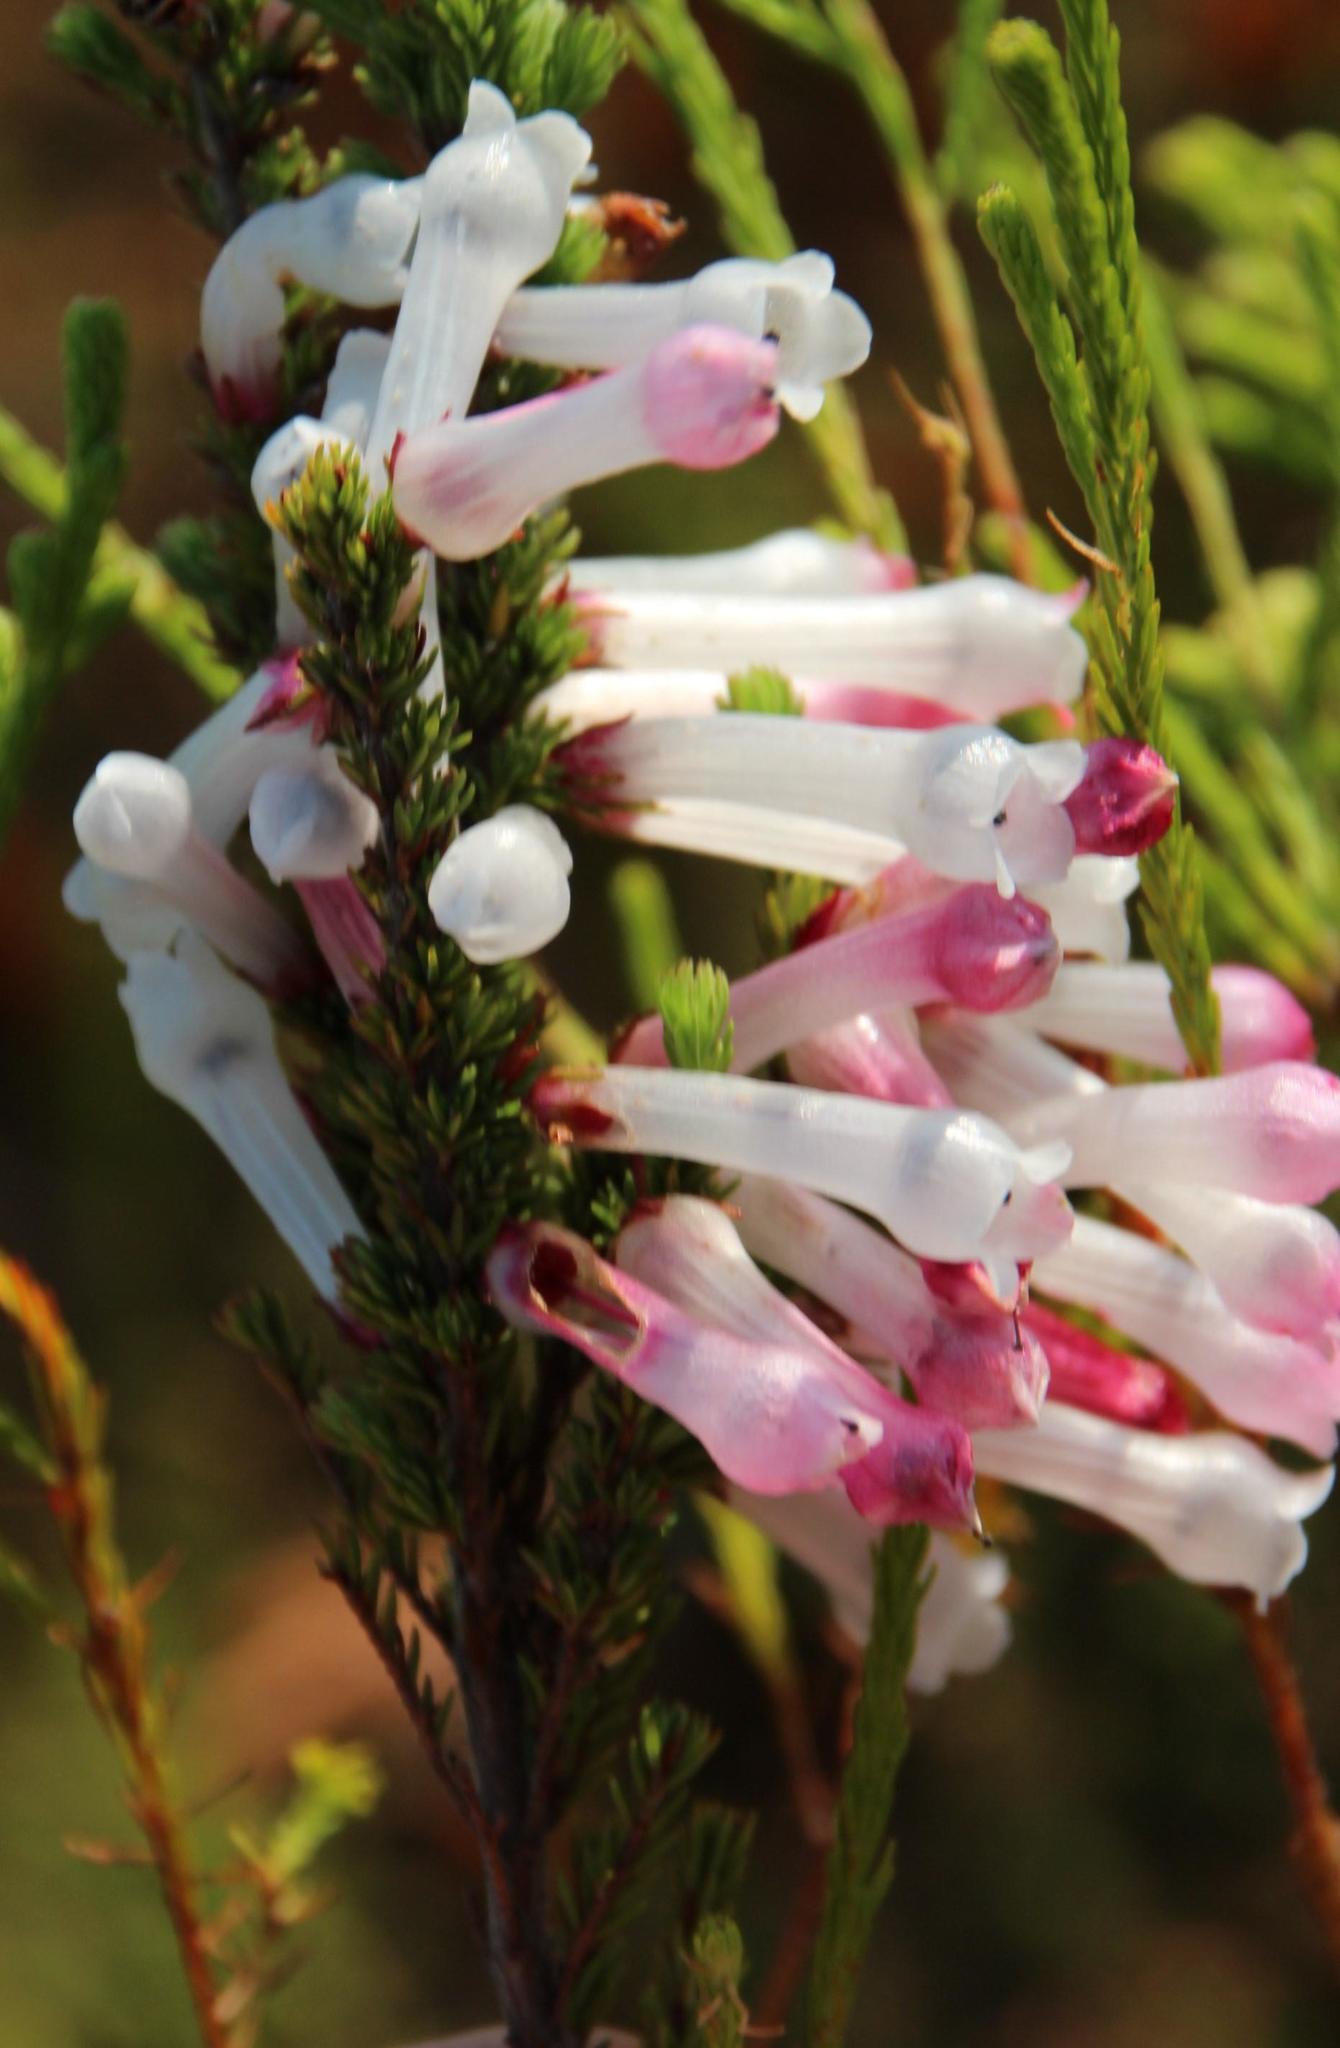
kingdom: Plantae
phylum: Tracheophyta
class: Magnoliopsida
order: Ericales
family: Ericaceae
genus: Erica
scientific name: Erica colorans
